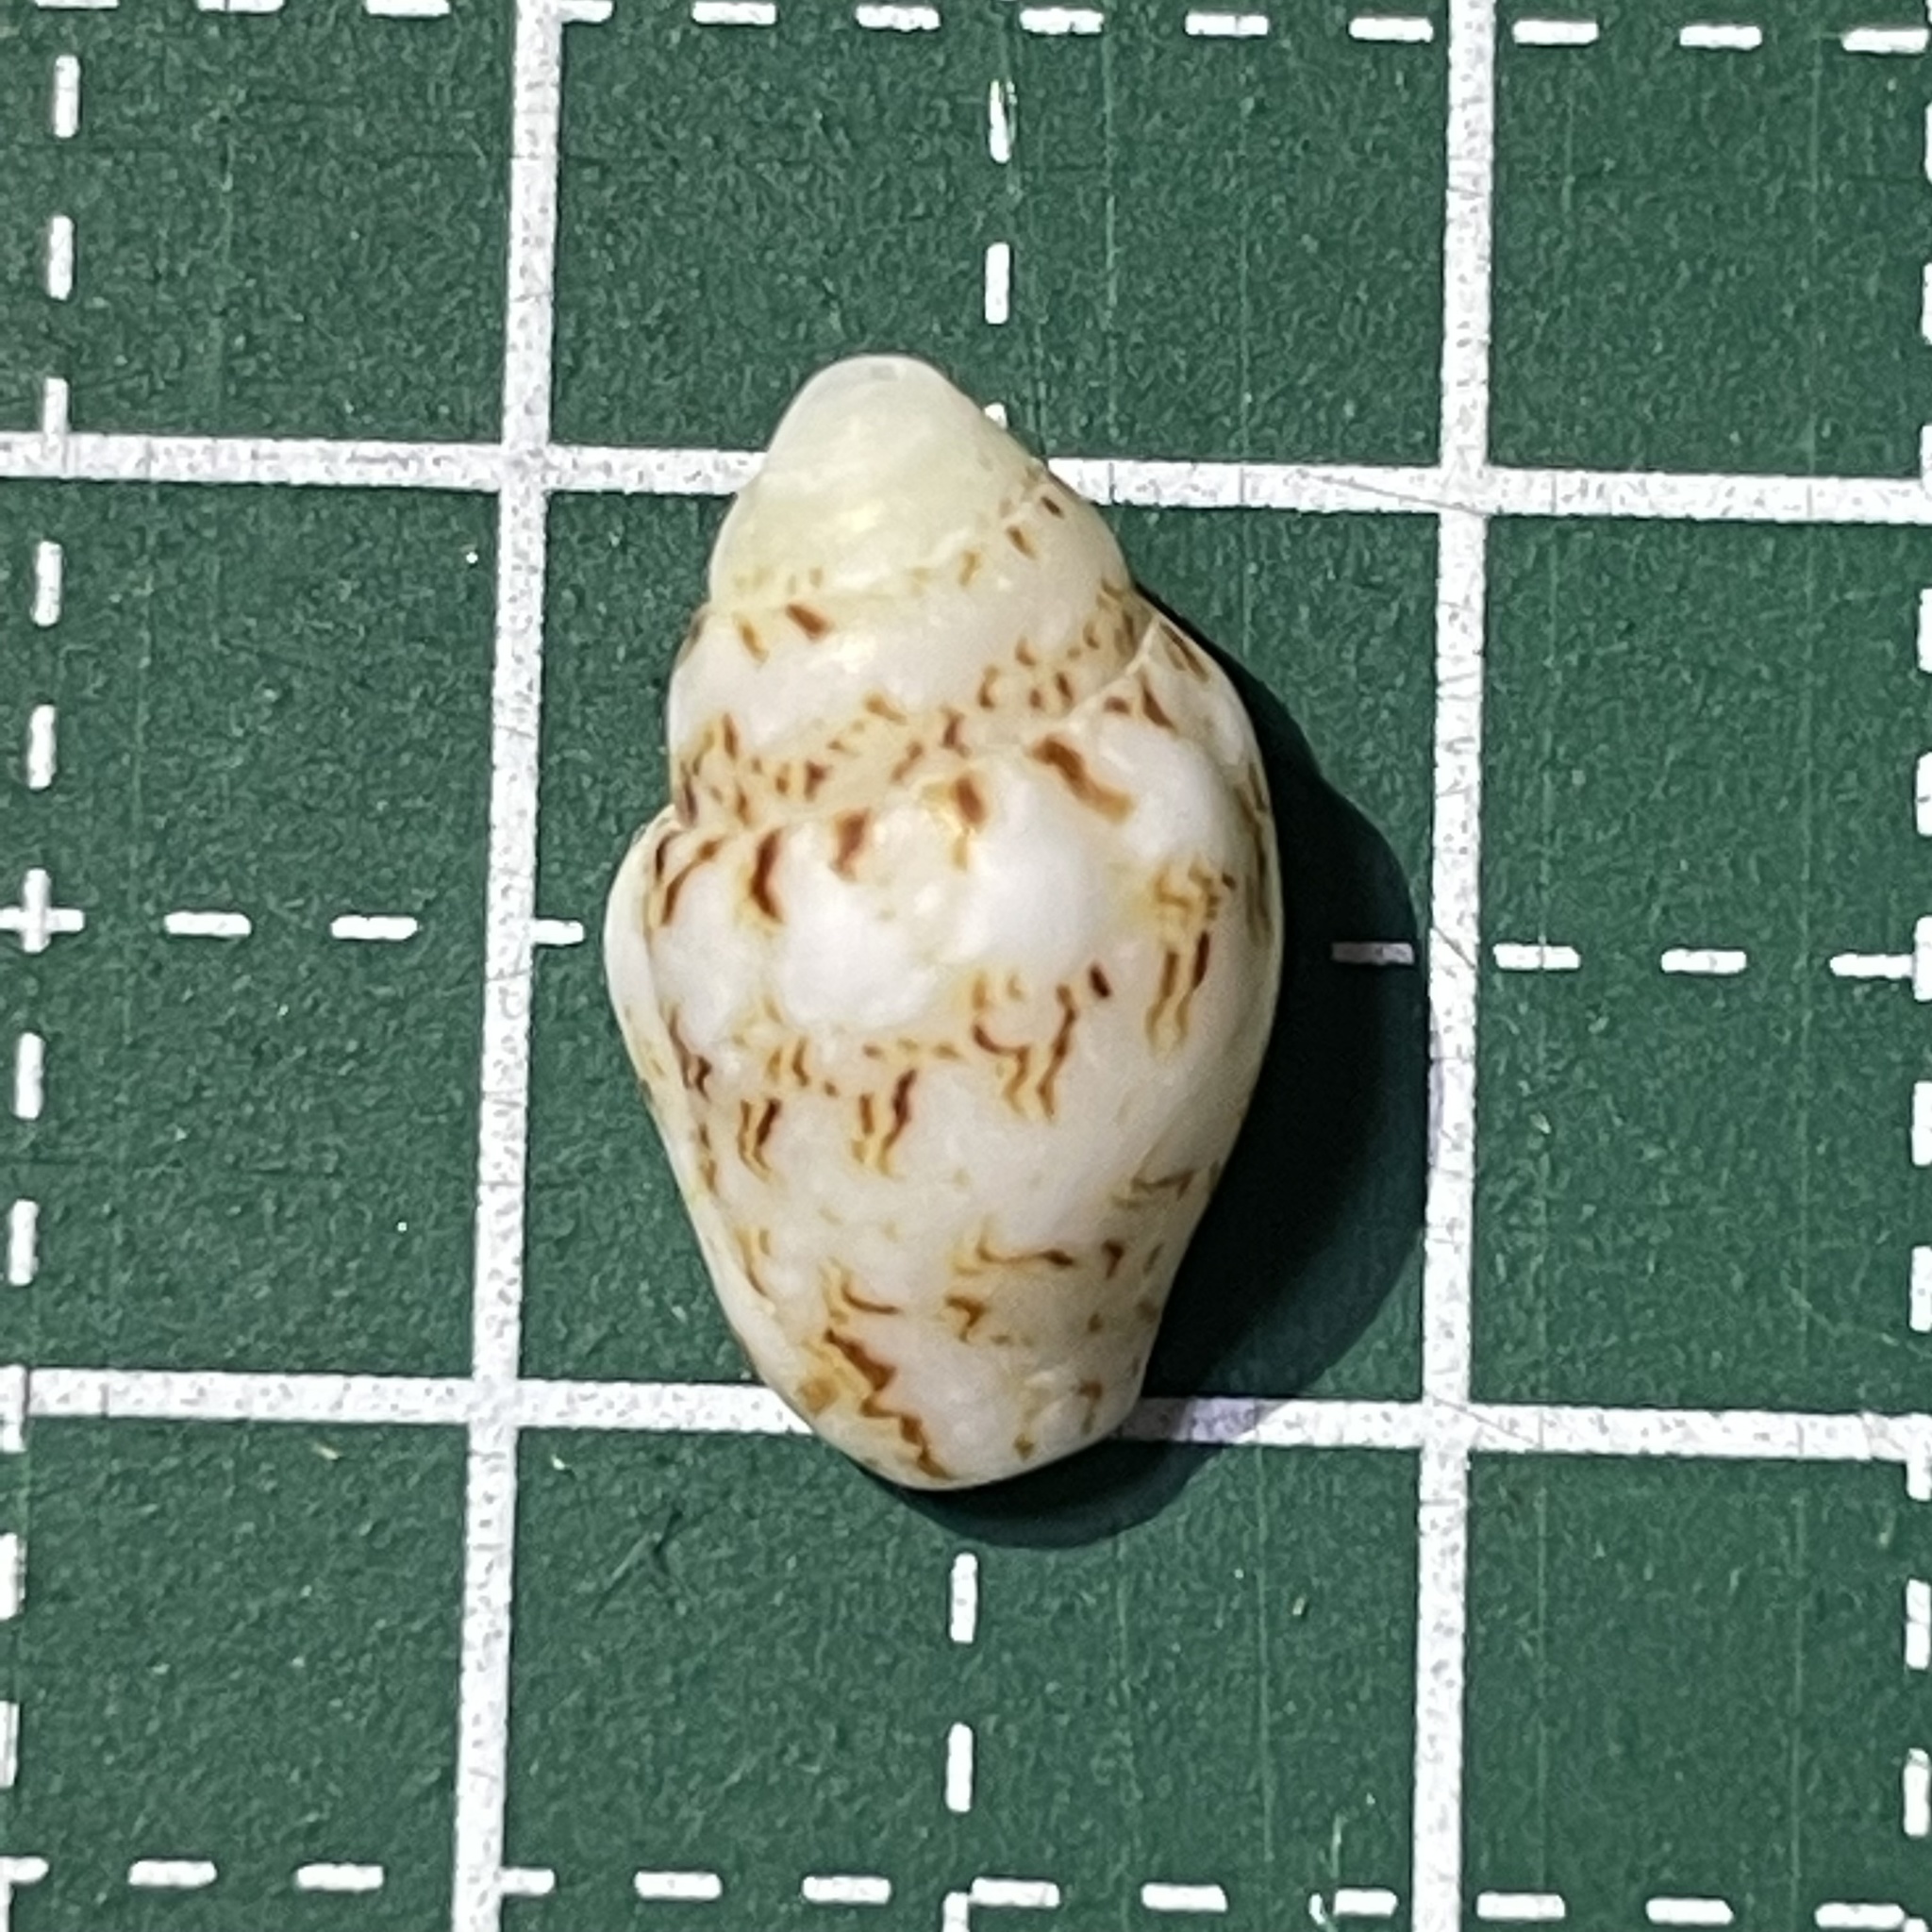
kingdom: Animalia
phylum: Mollusca
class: Gastropoda
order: Neogastropoda
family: Columbellidae
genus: Euplica
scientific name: Euplica scripta
